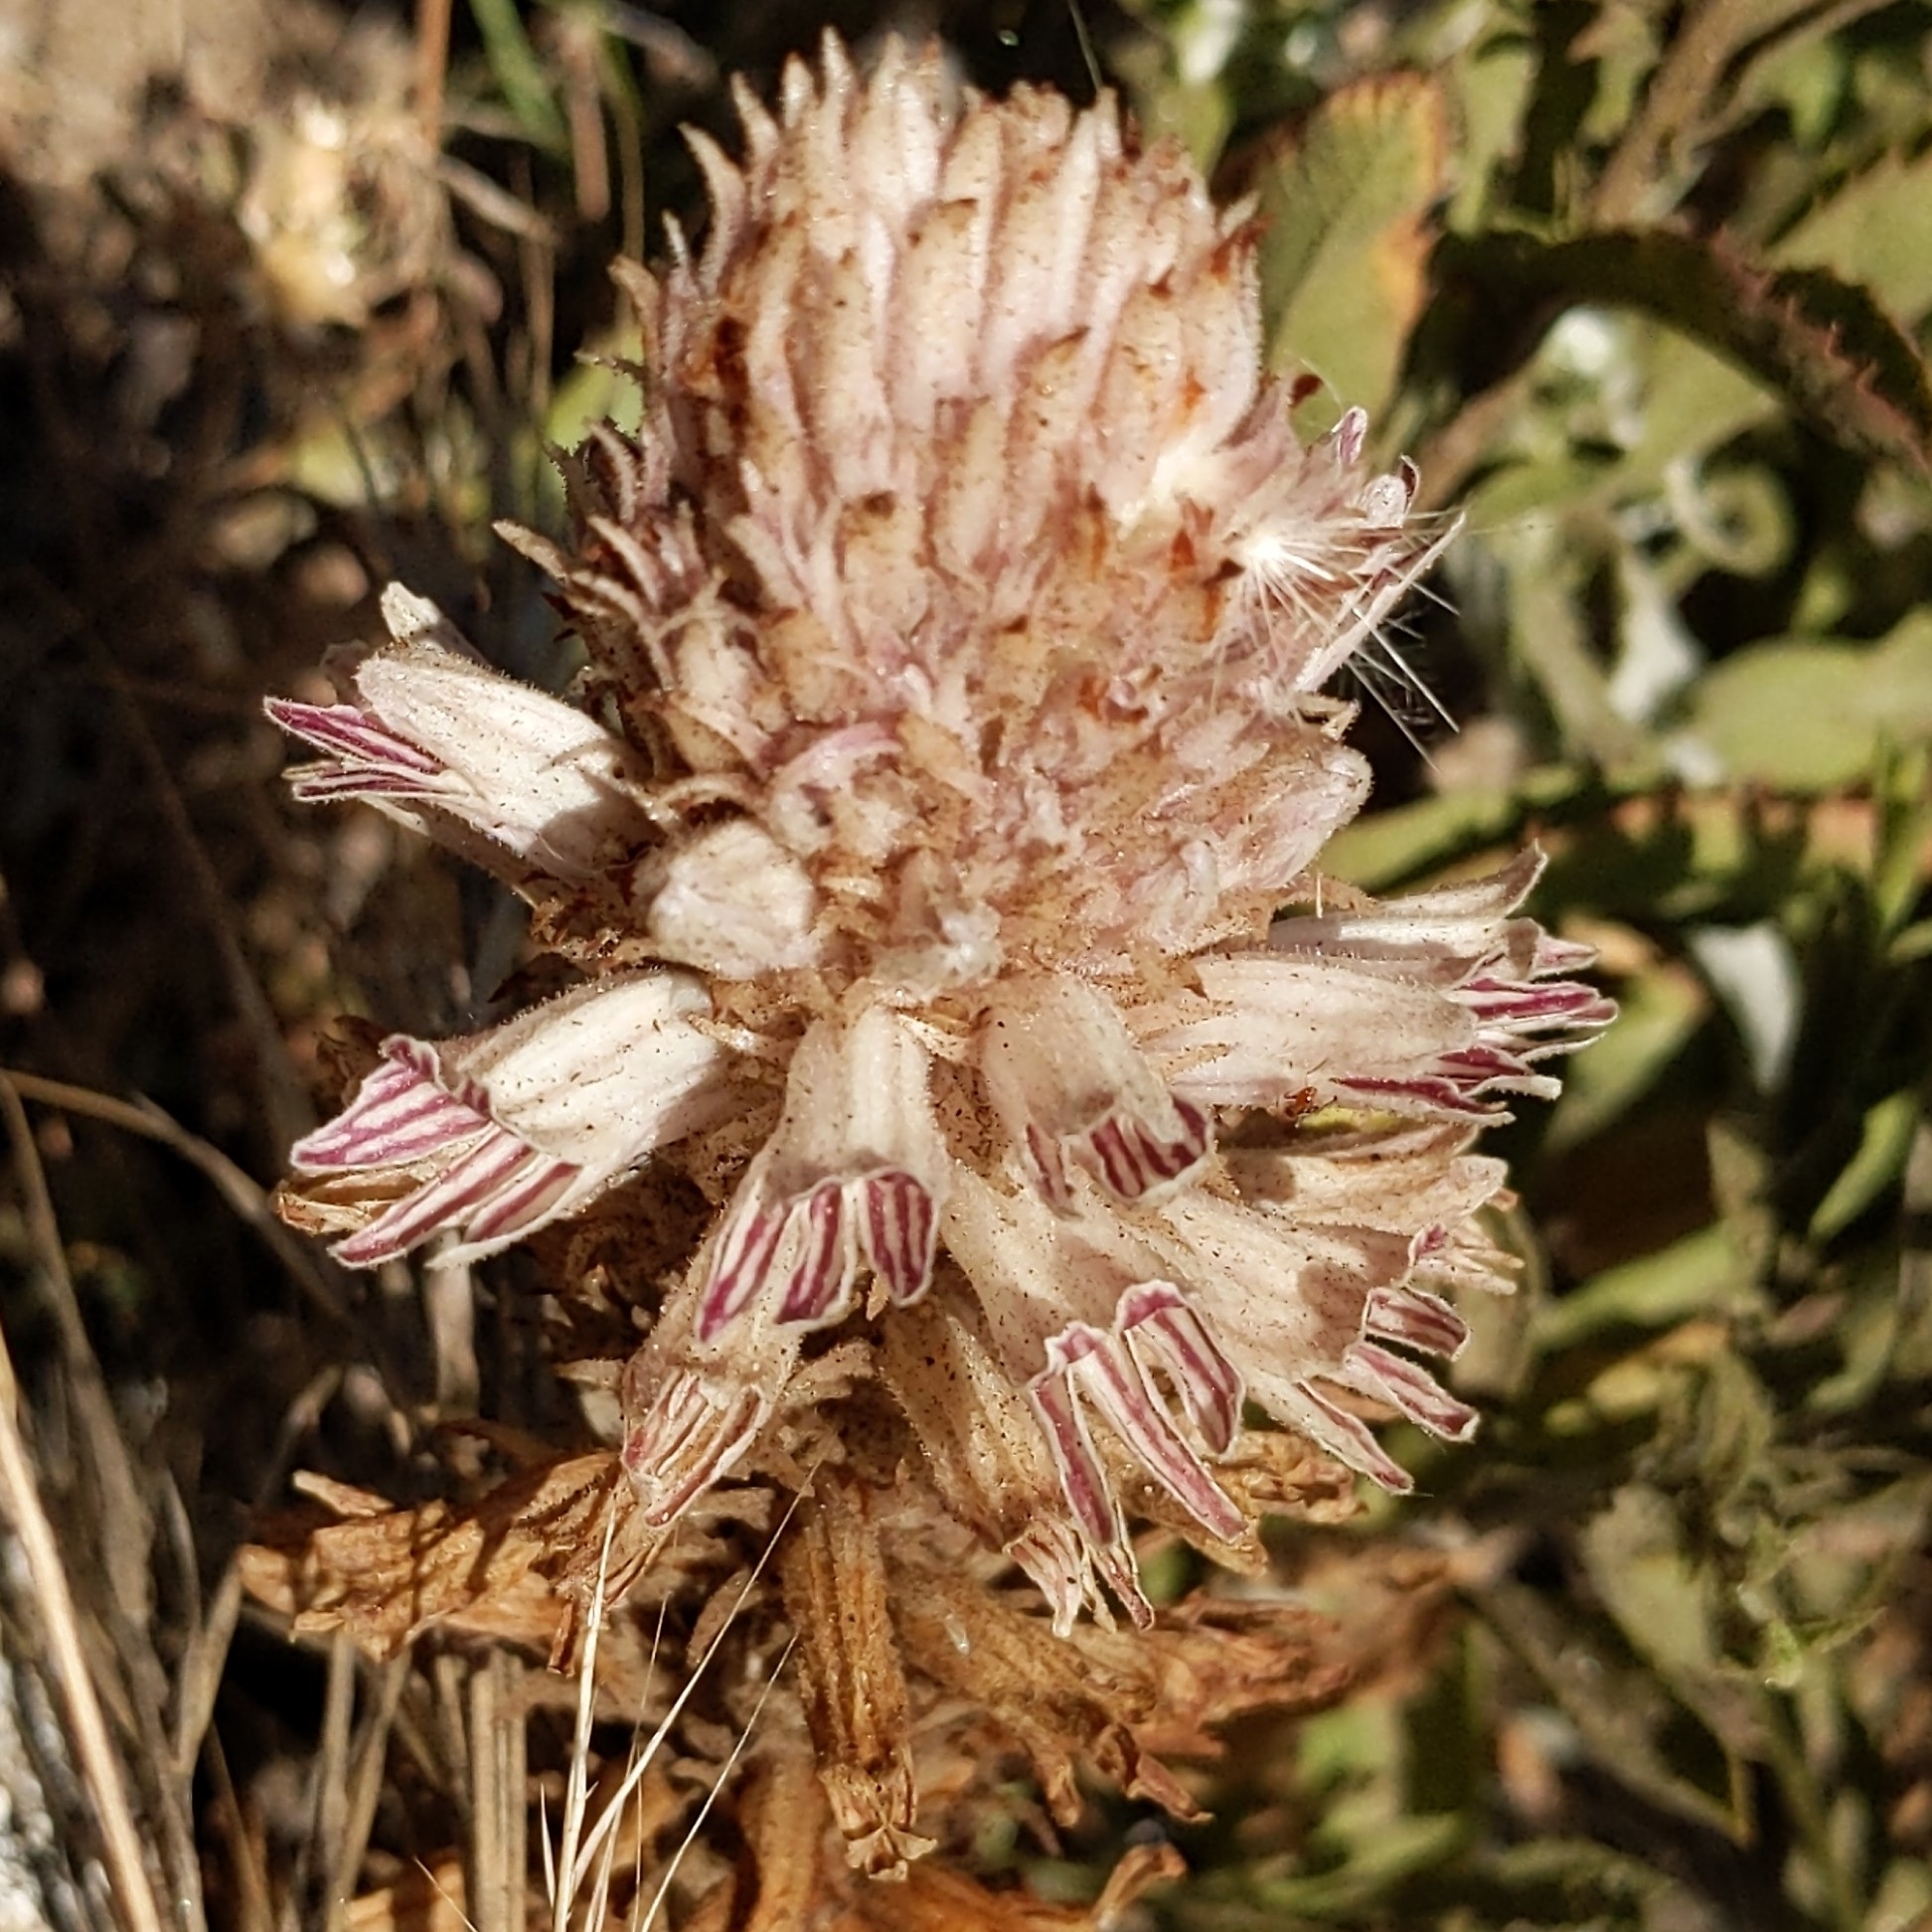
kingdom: Plantae
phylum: Tracheophyta
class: Magnoliopsida
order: Lamiales
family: Orobanchaceae
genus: Aphyllon
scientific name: Aphyllon parishii
